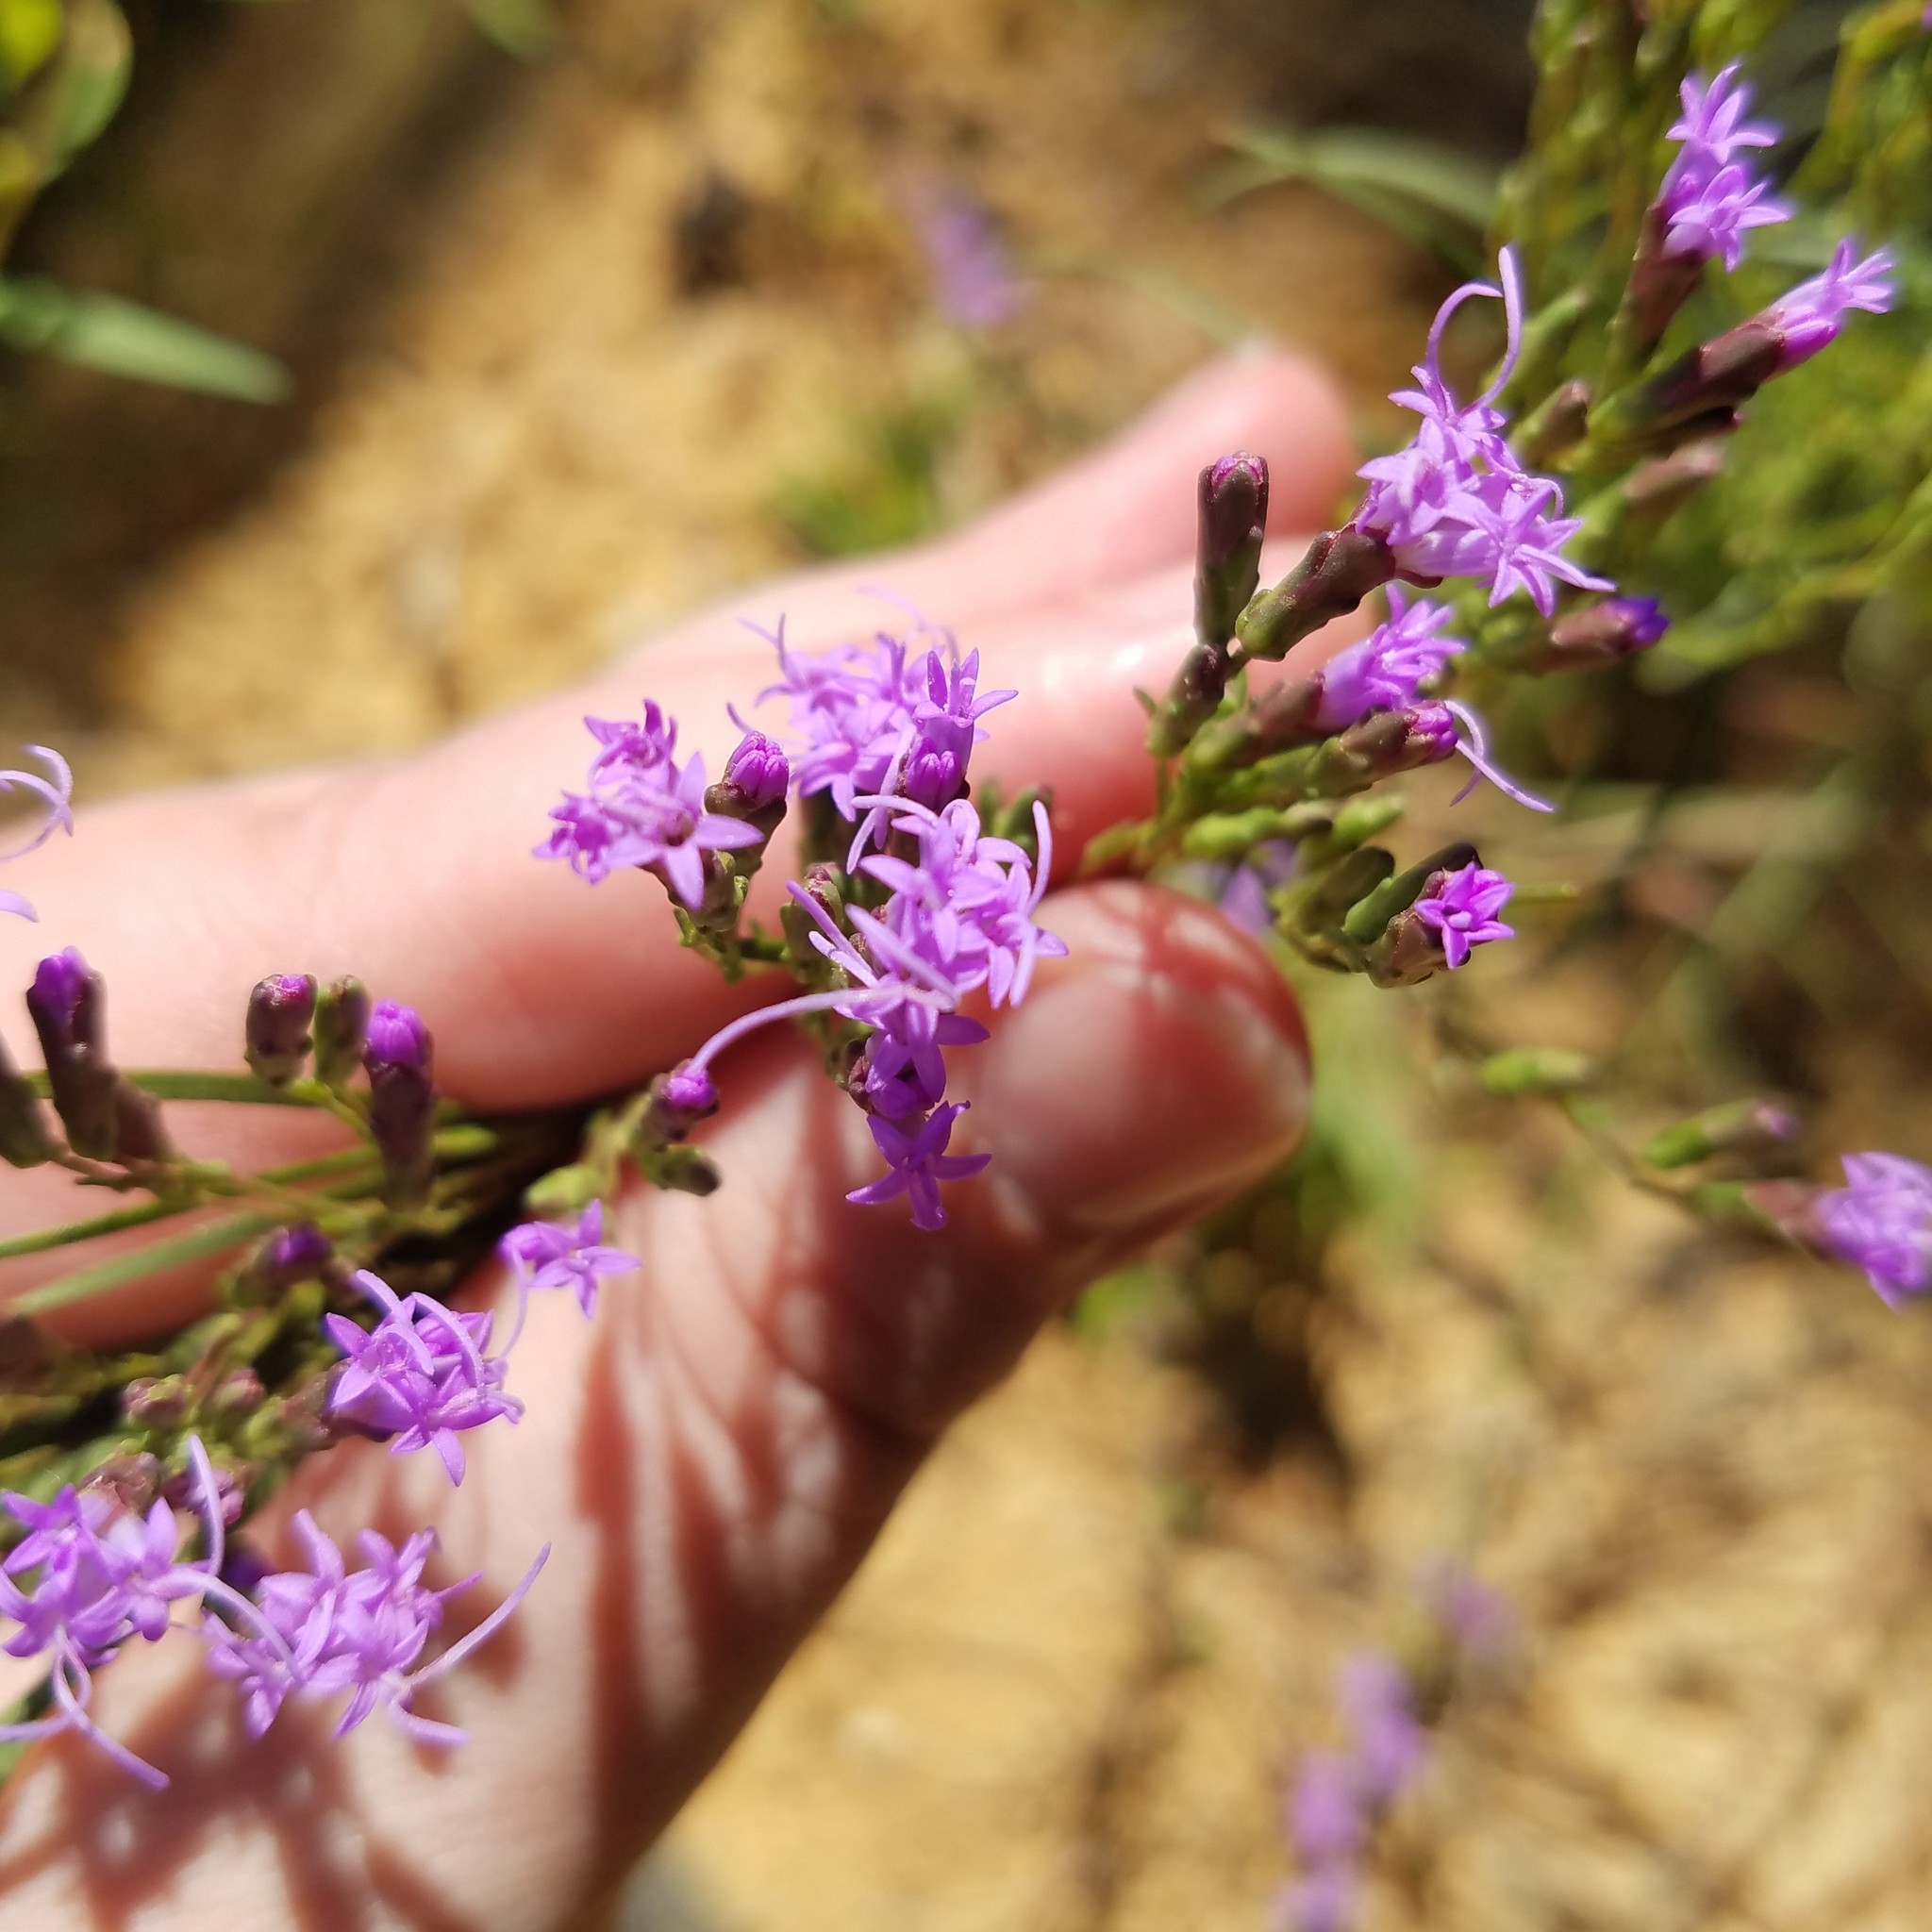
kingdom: Plantae
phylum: Tracheophyta
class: Magnoliopsida
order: Asterales
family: Asteraceae
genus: Liatris
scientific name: Liatris microcephala
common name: Small-head gayfeather
